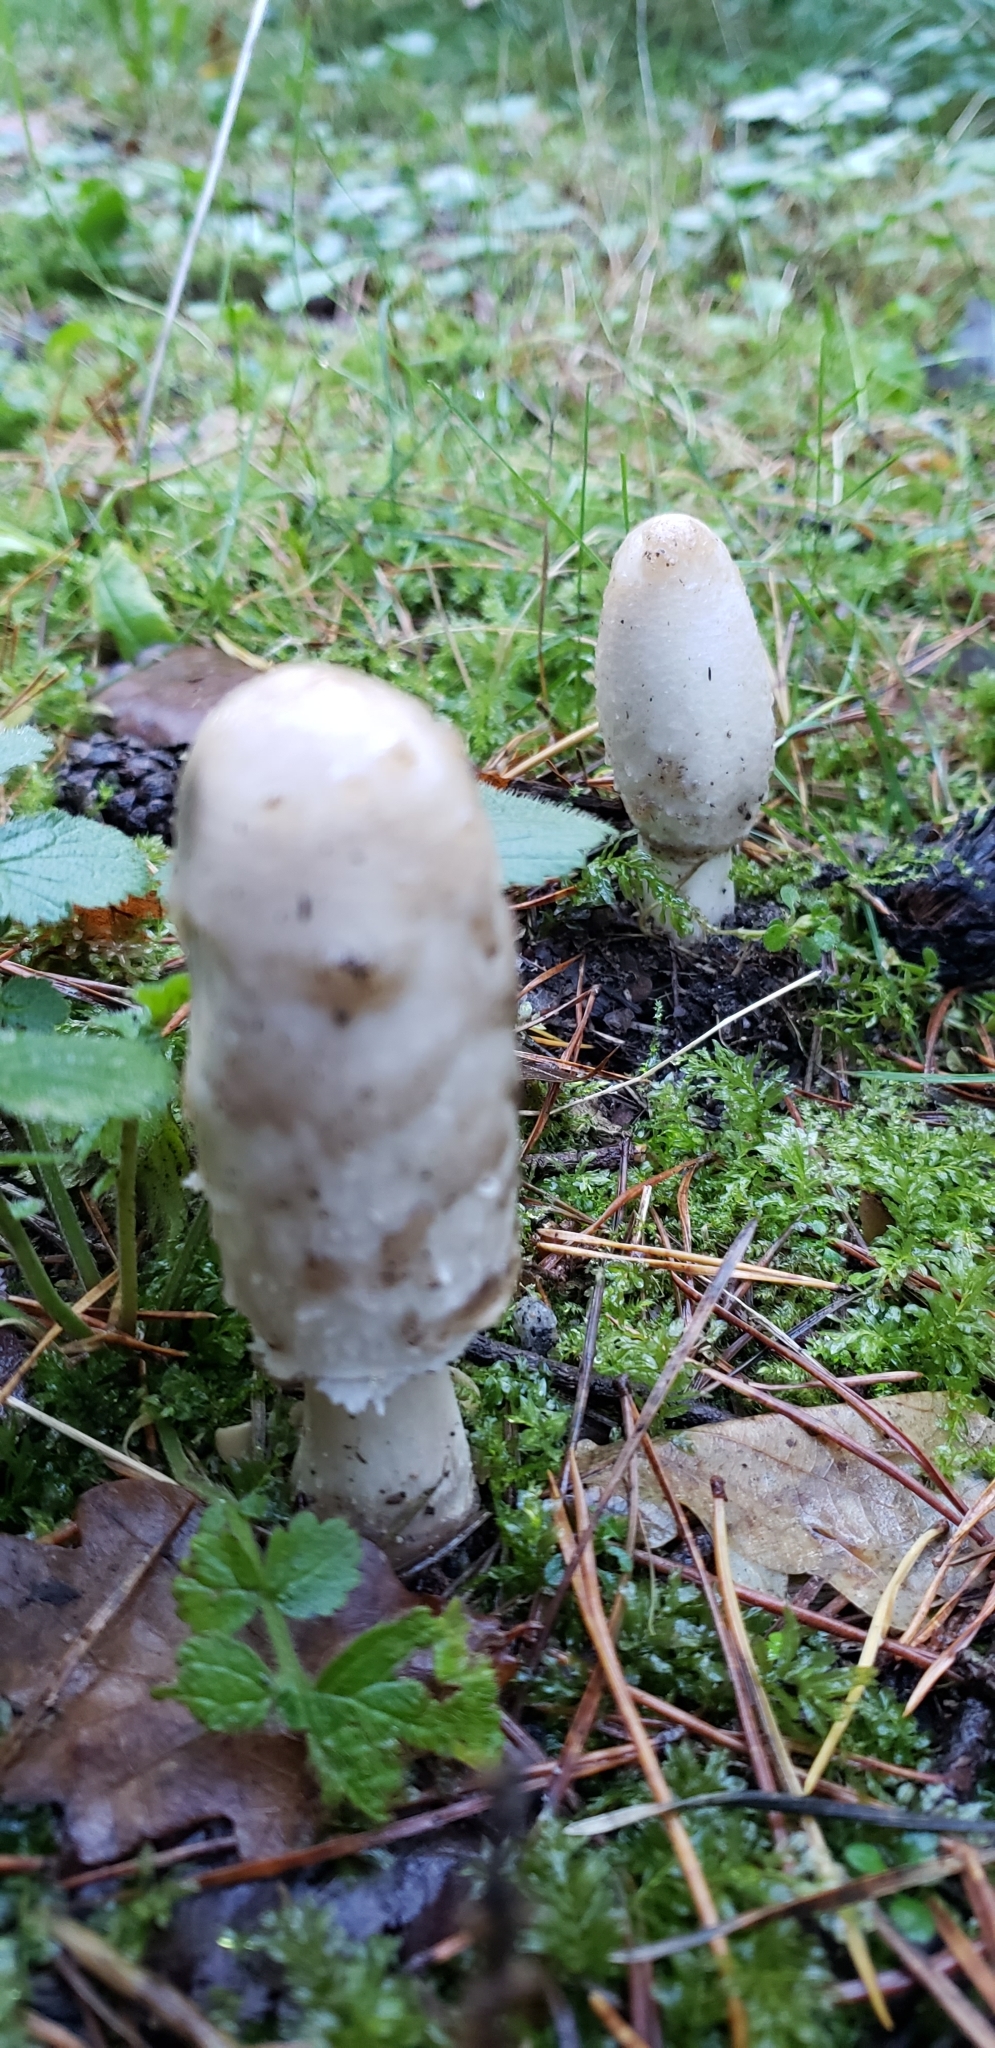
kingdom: Fungi
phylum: Basidiomycota
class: Agaricomycetes
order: Agaricales
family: Agaricaceae
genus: Coprinus
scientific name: Coprinus comatus
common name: Lawyer's wig
